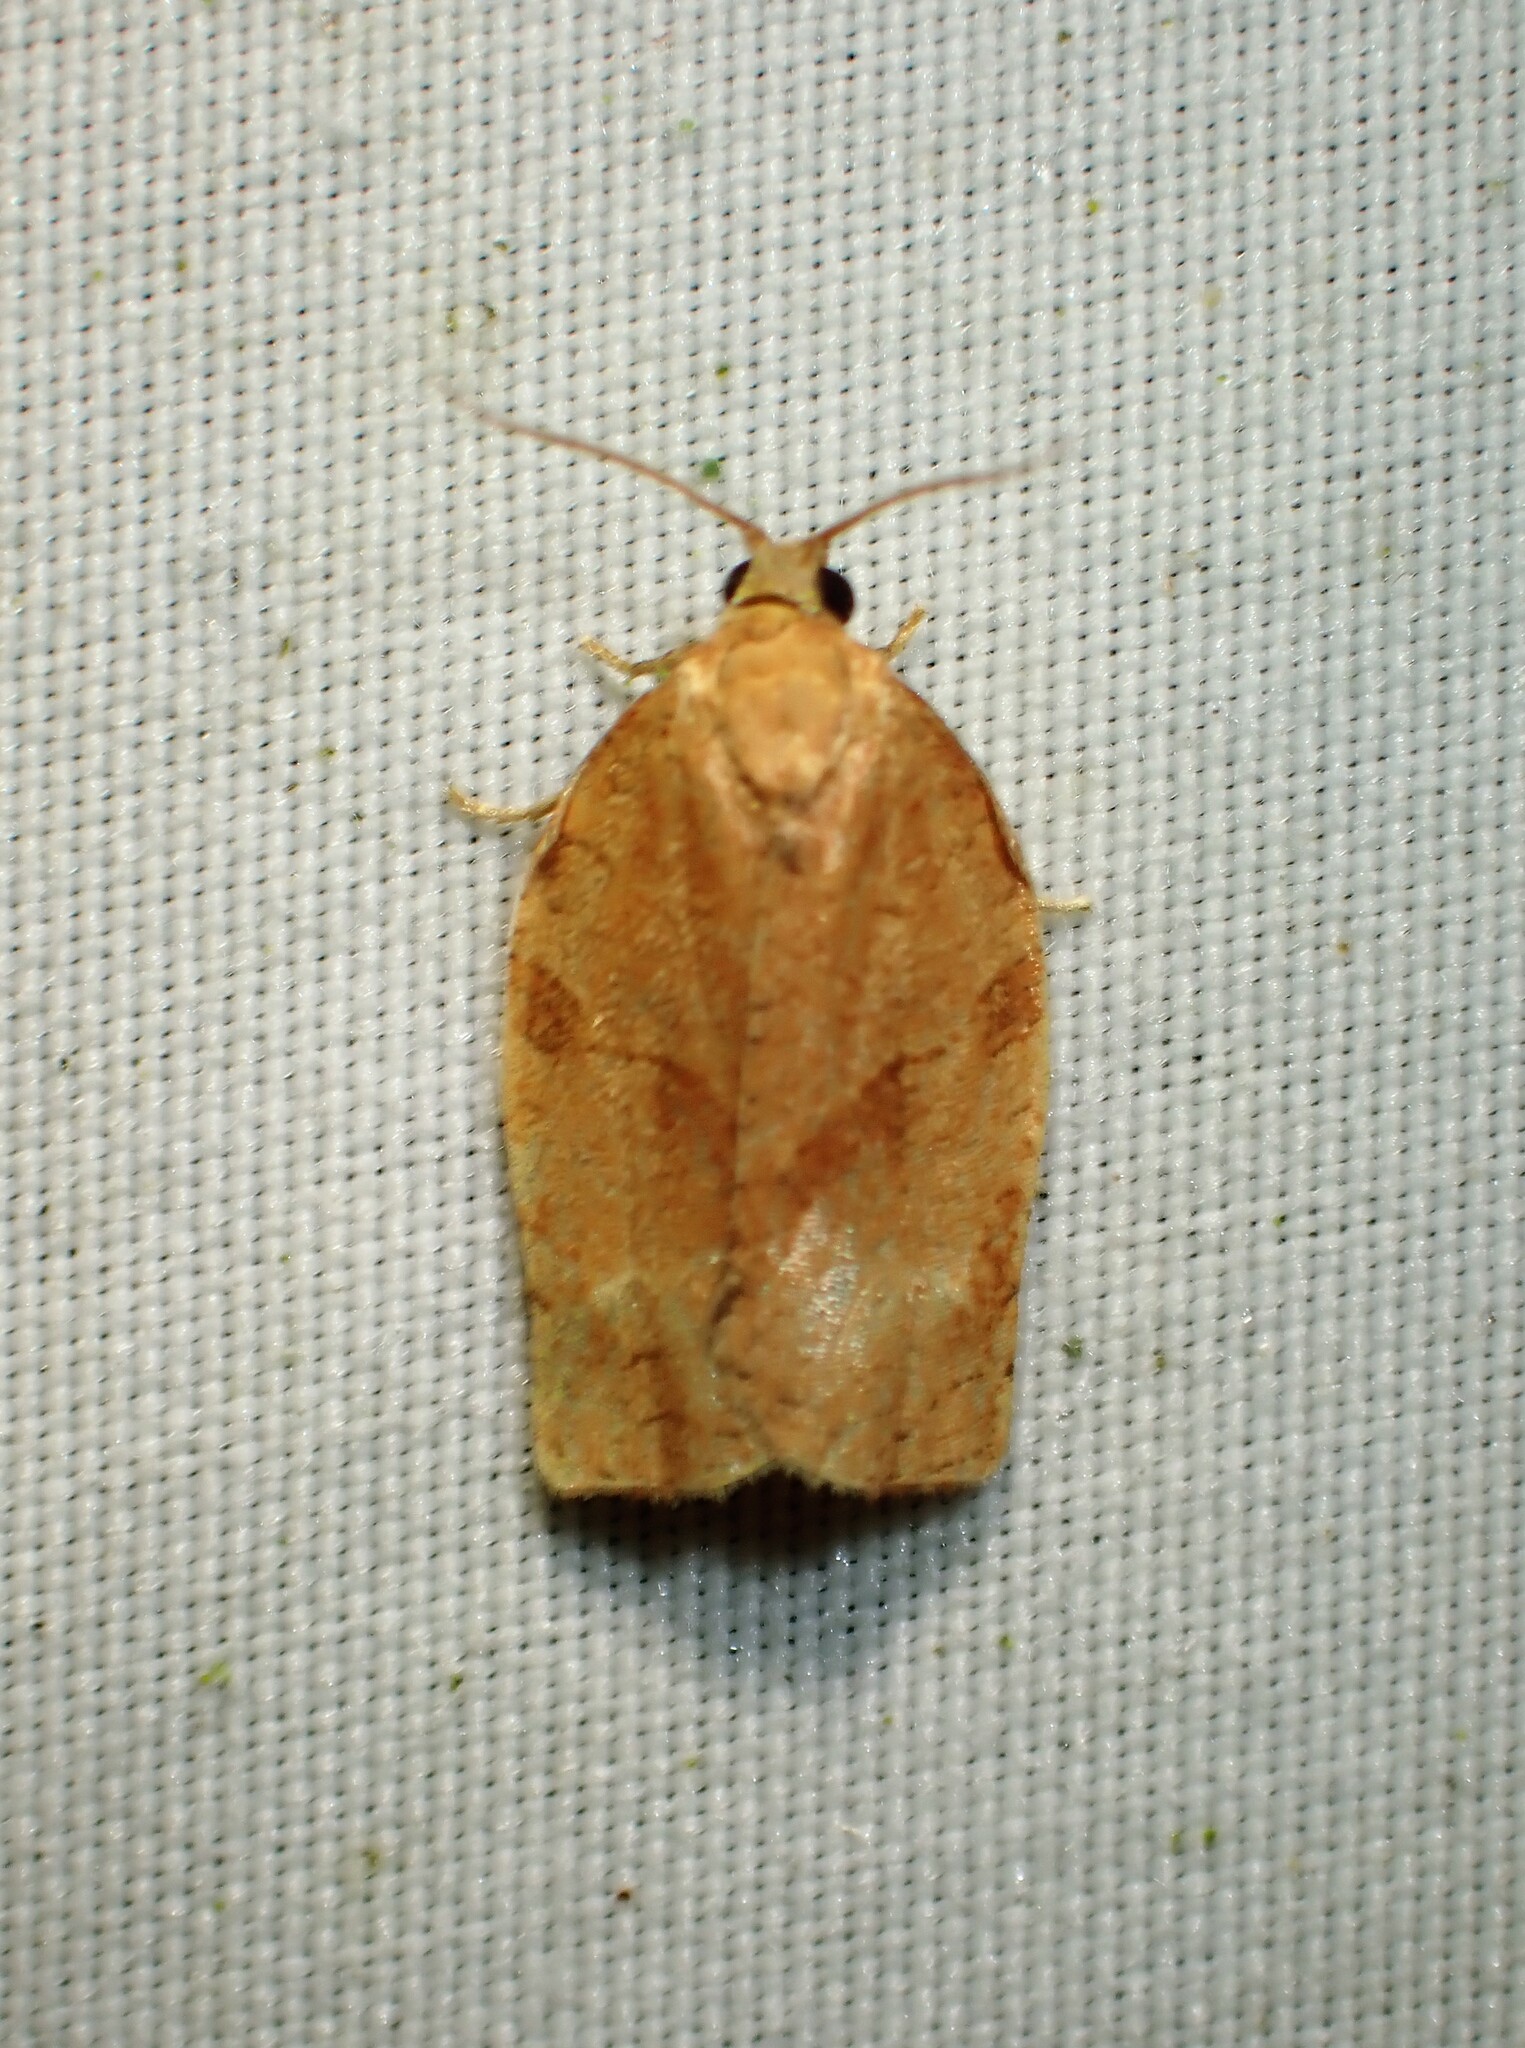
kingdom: Animalia
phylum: Arthropoda
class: Insecta
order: Lepidoptera
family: Tortricidae
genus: Choristoneura
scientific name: Choristoneura rosaceana
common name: Oblique-banded leafroller moth
